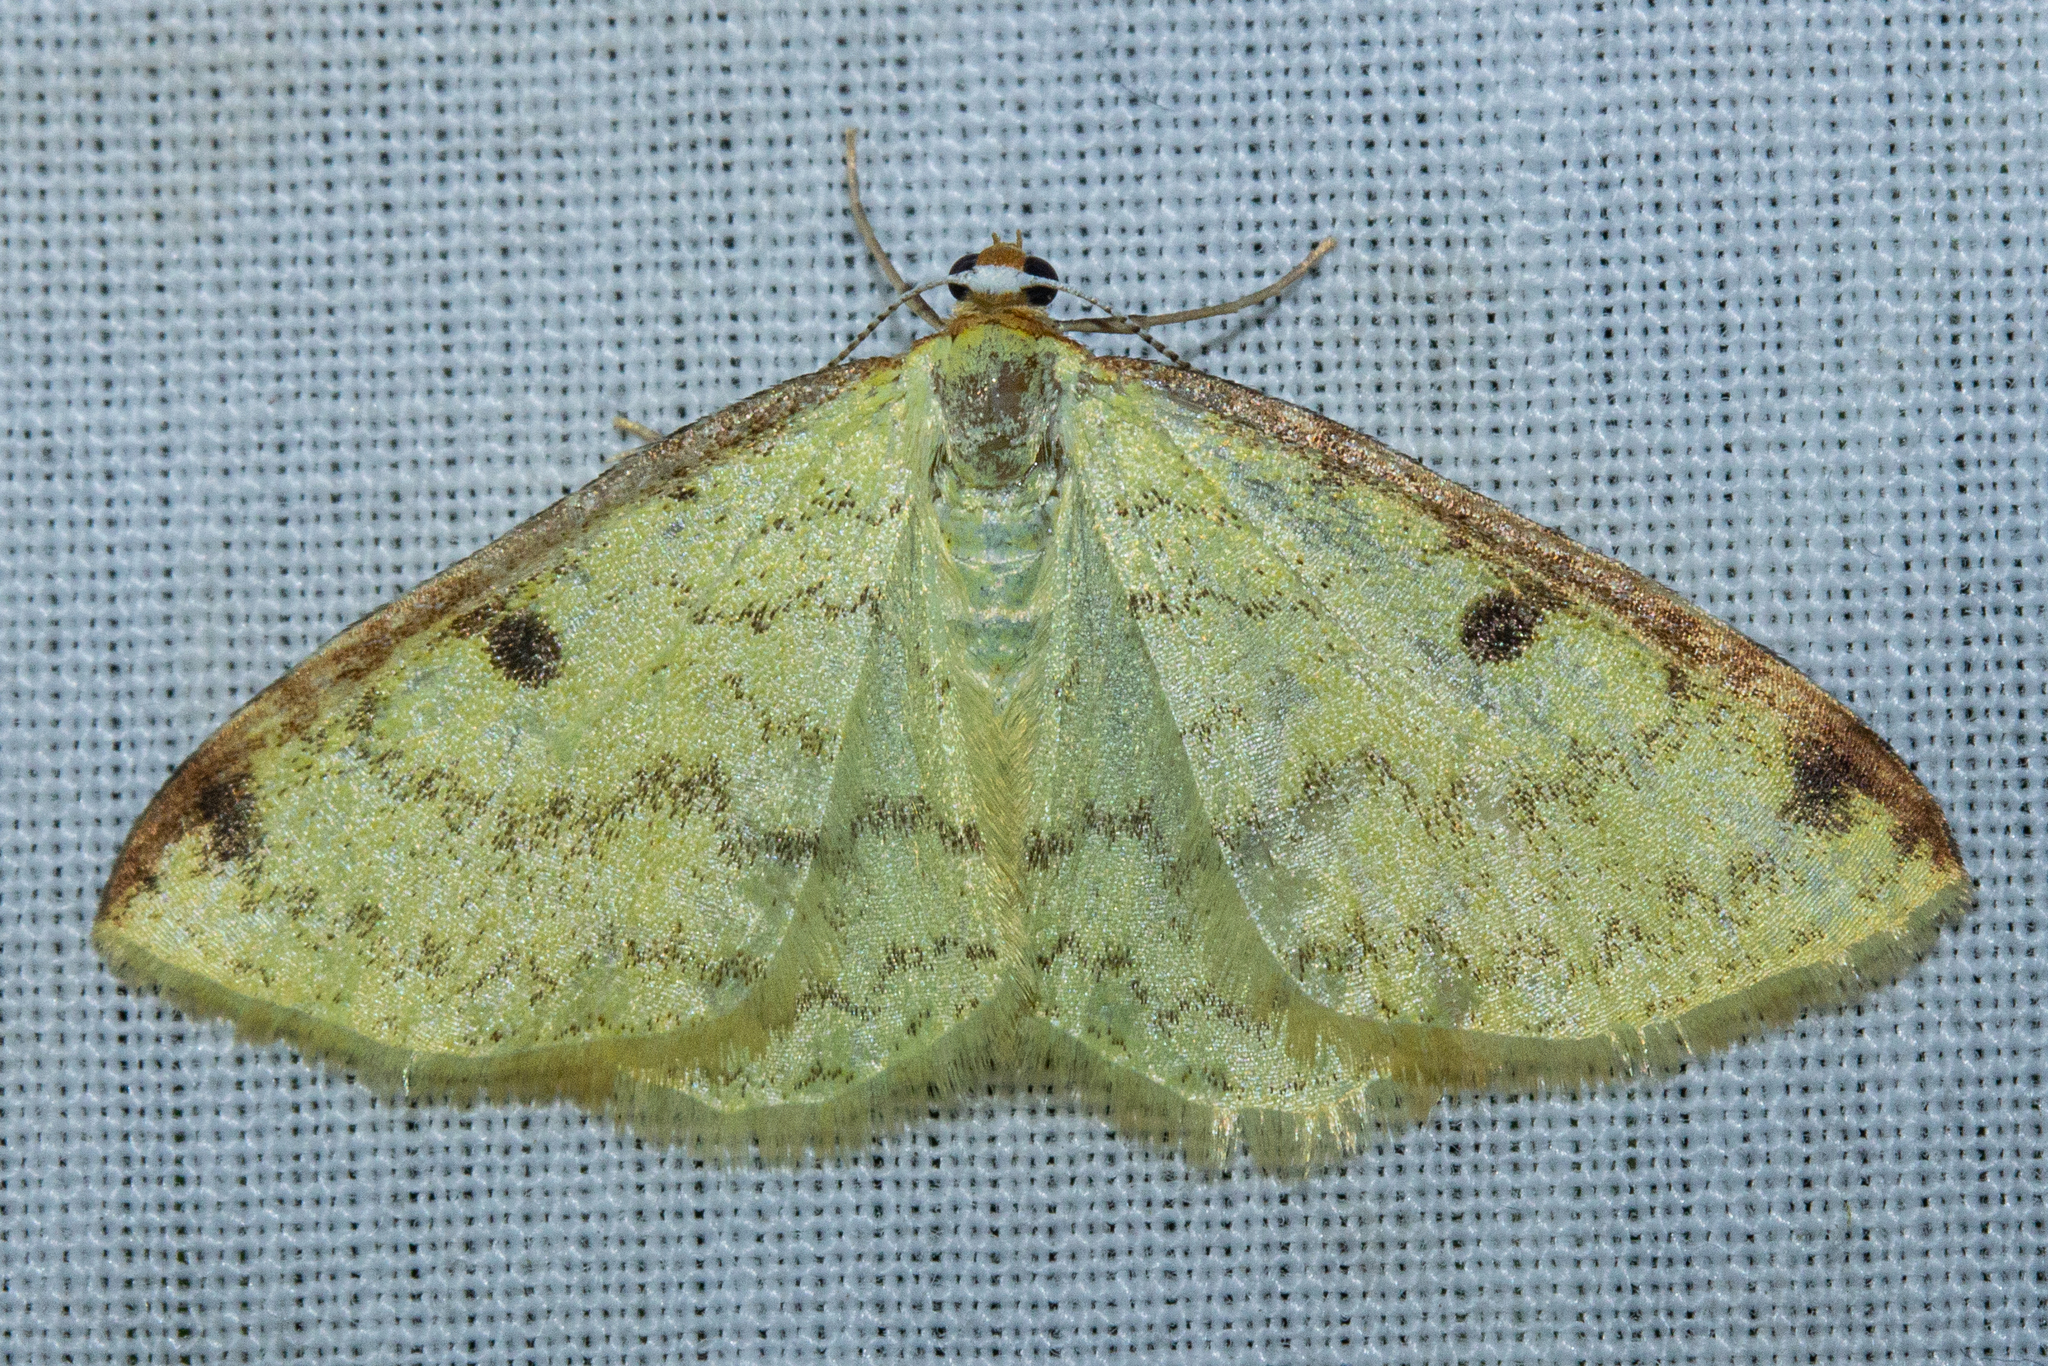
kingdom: Animalia
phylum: Arthropoda
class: Insecta
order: Lepidoptera
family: Geometridae
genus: Epiphryne
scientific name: Epiphryne undosata
